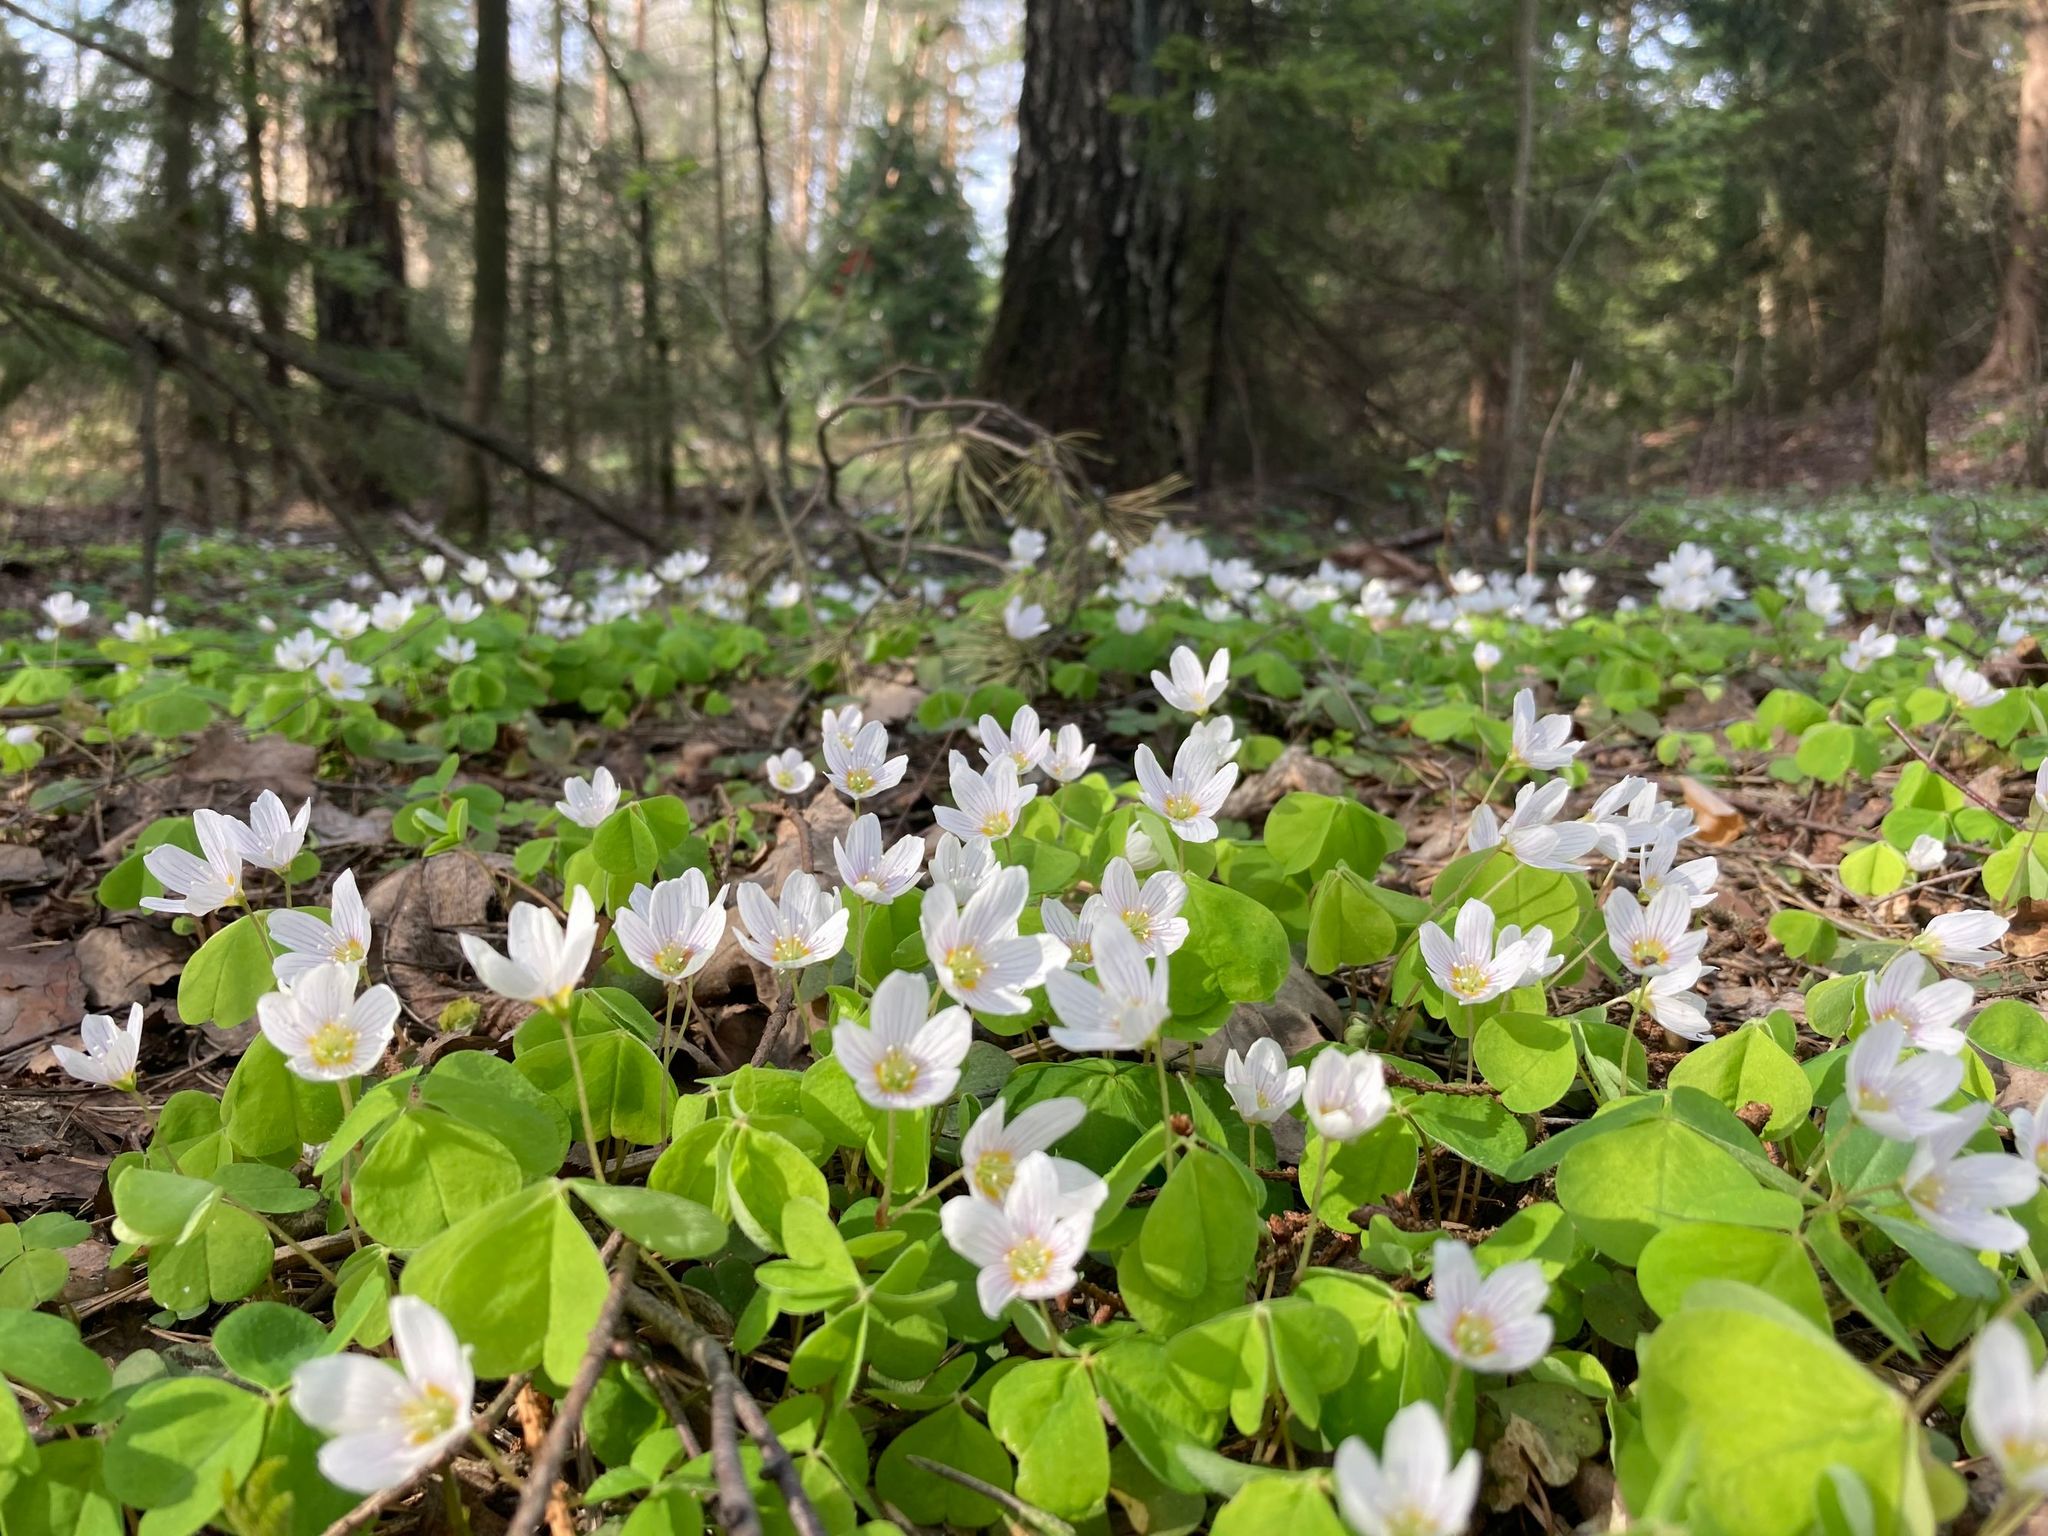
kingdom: Plantae
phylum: Tracheophyta
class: Magnoliopsida
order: Oxalidales
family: Oxalidaceae
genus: Oxalis
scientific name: Oxalis acetosella
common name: Wood-sorrel
